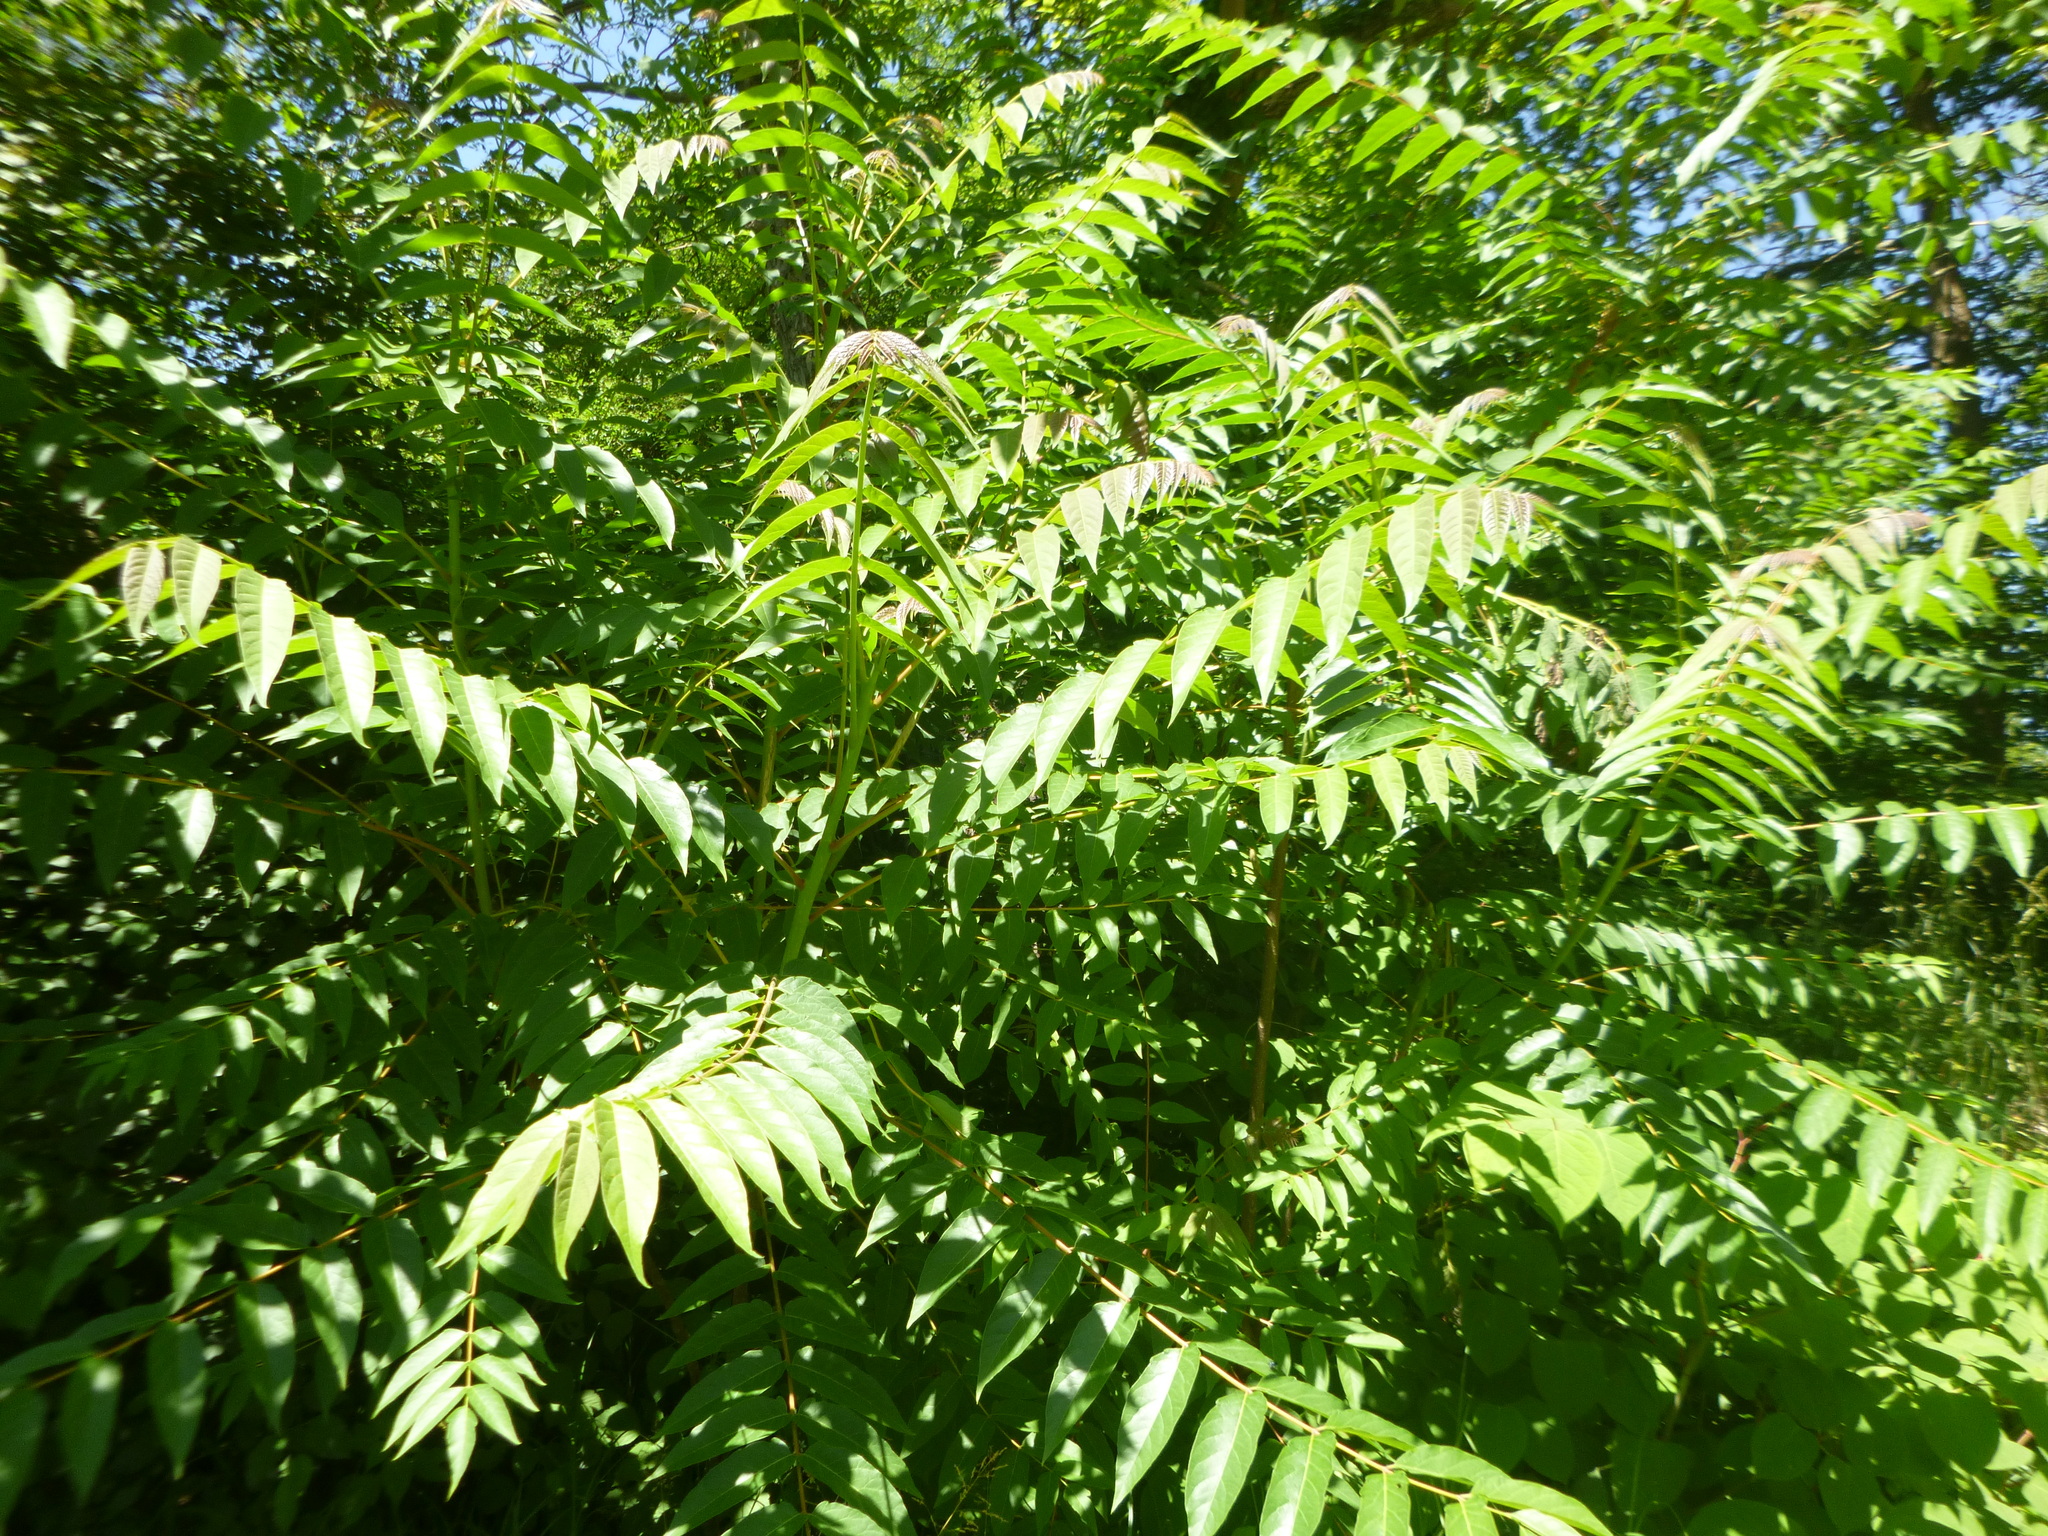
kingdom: Plantae
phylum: Tracheophyta
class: Magnoliopsida
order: Sapindales
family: Simaroubaceae
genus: Ailanthus
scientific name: Ailanthus altissima
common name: Tree-of-heaven
